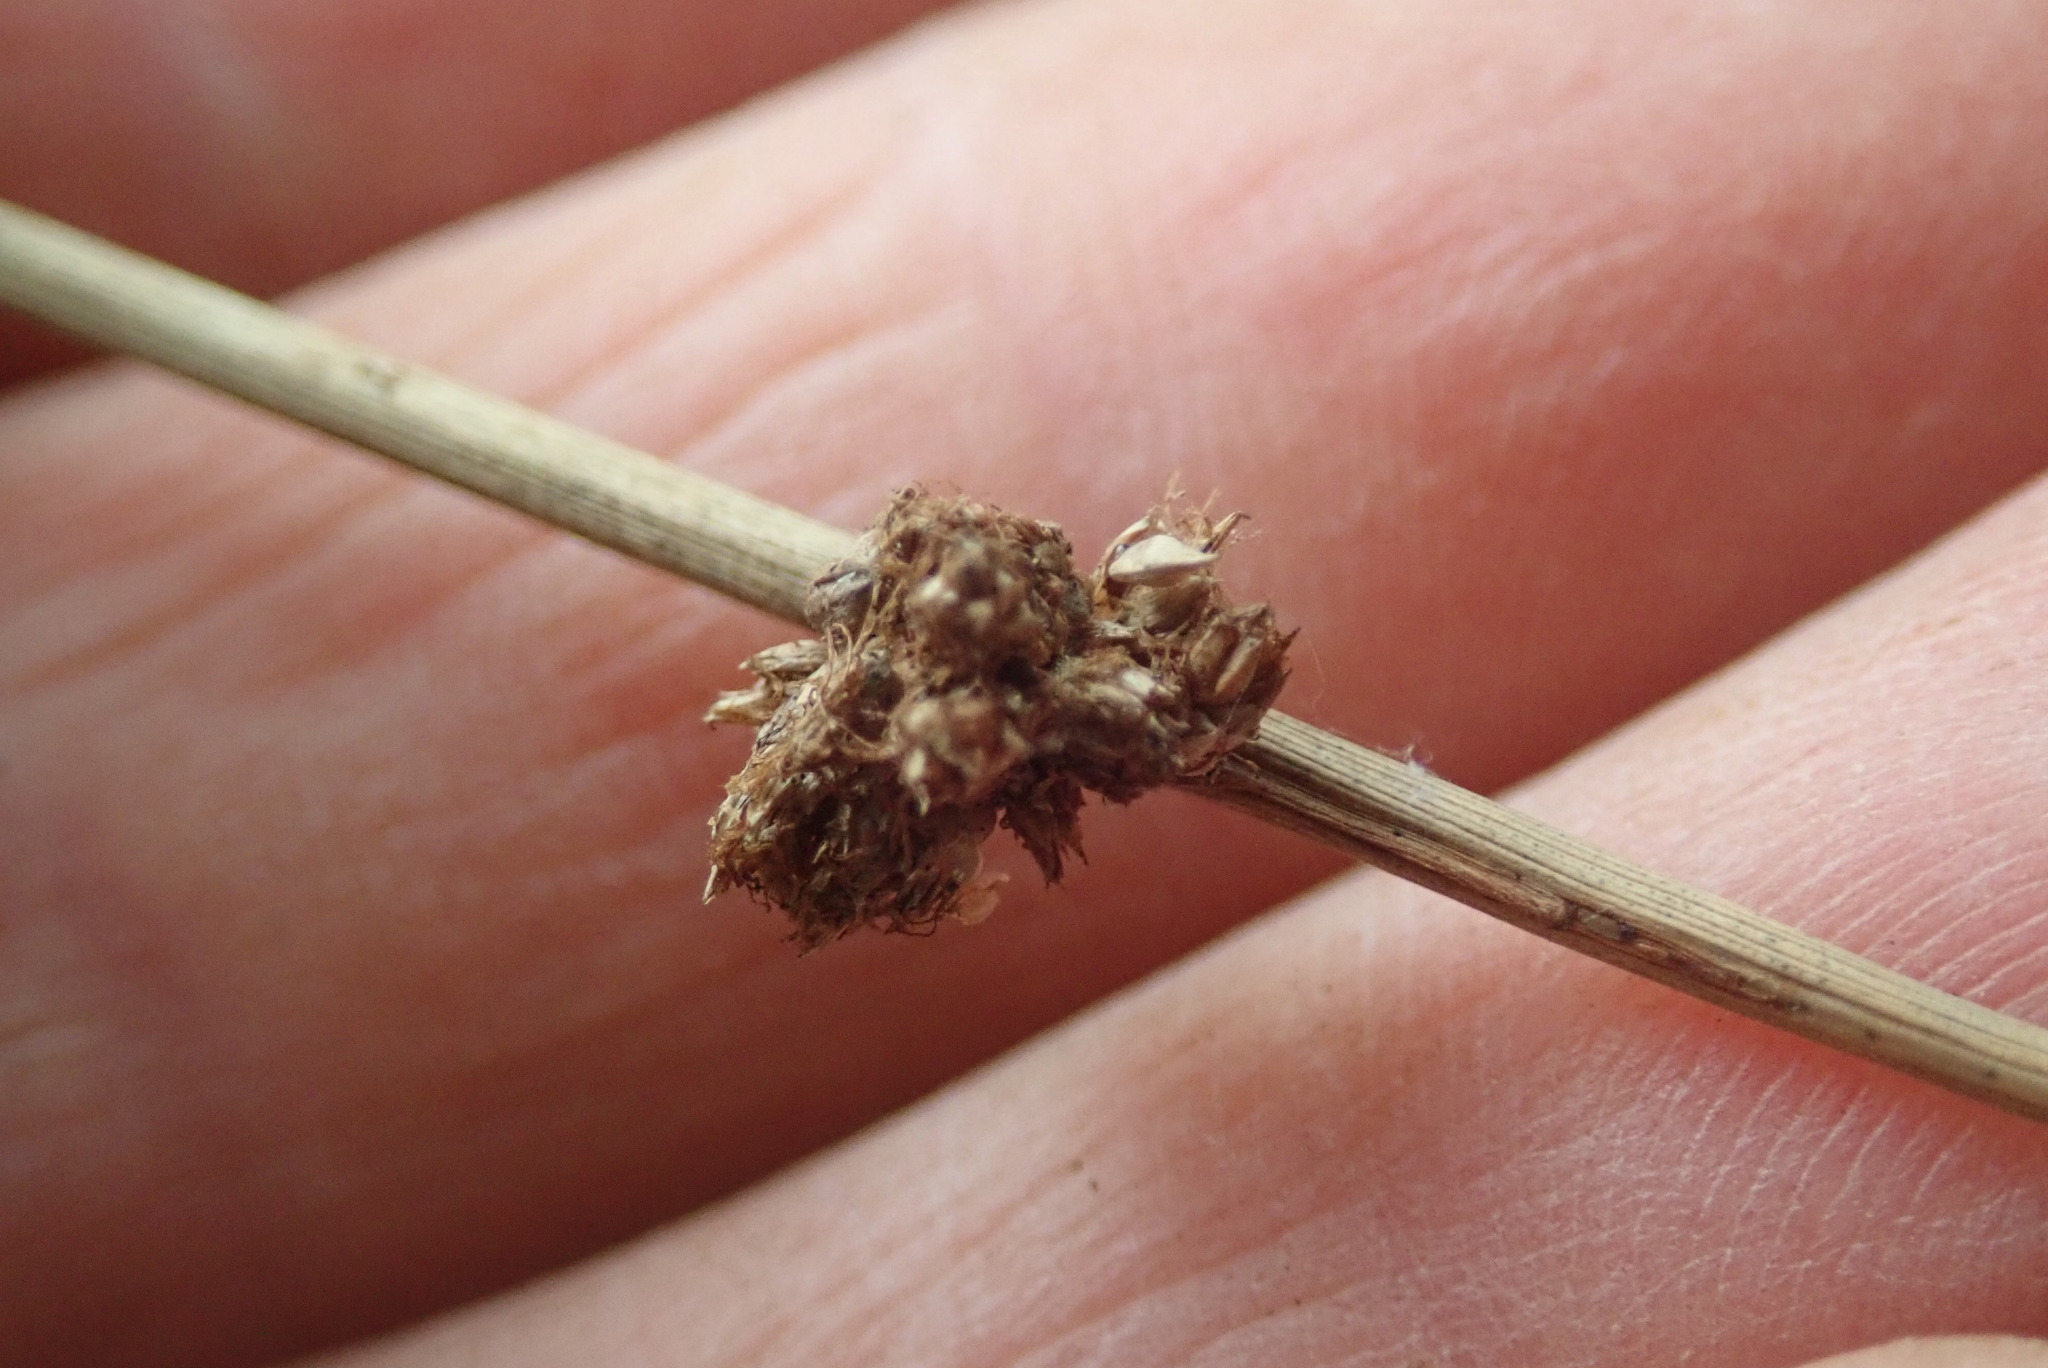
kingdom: Plantae
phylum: Tracheophyta
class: Liliopsida
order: Poales
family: Cyperaceae
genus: Ficinia
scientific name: Ficinia nodosa
